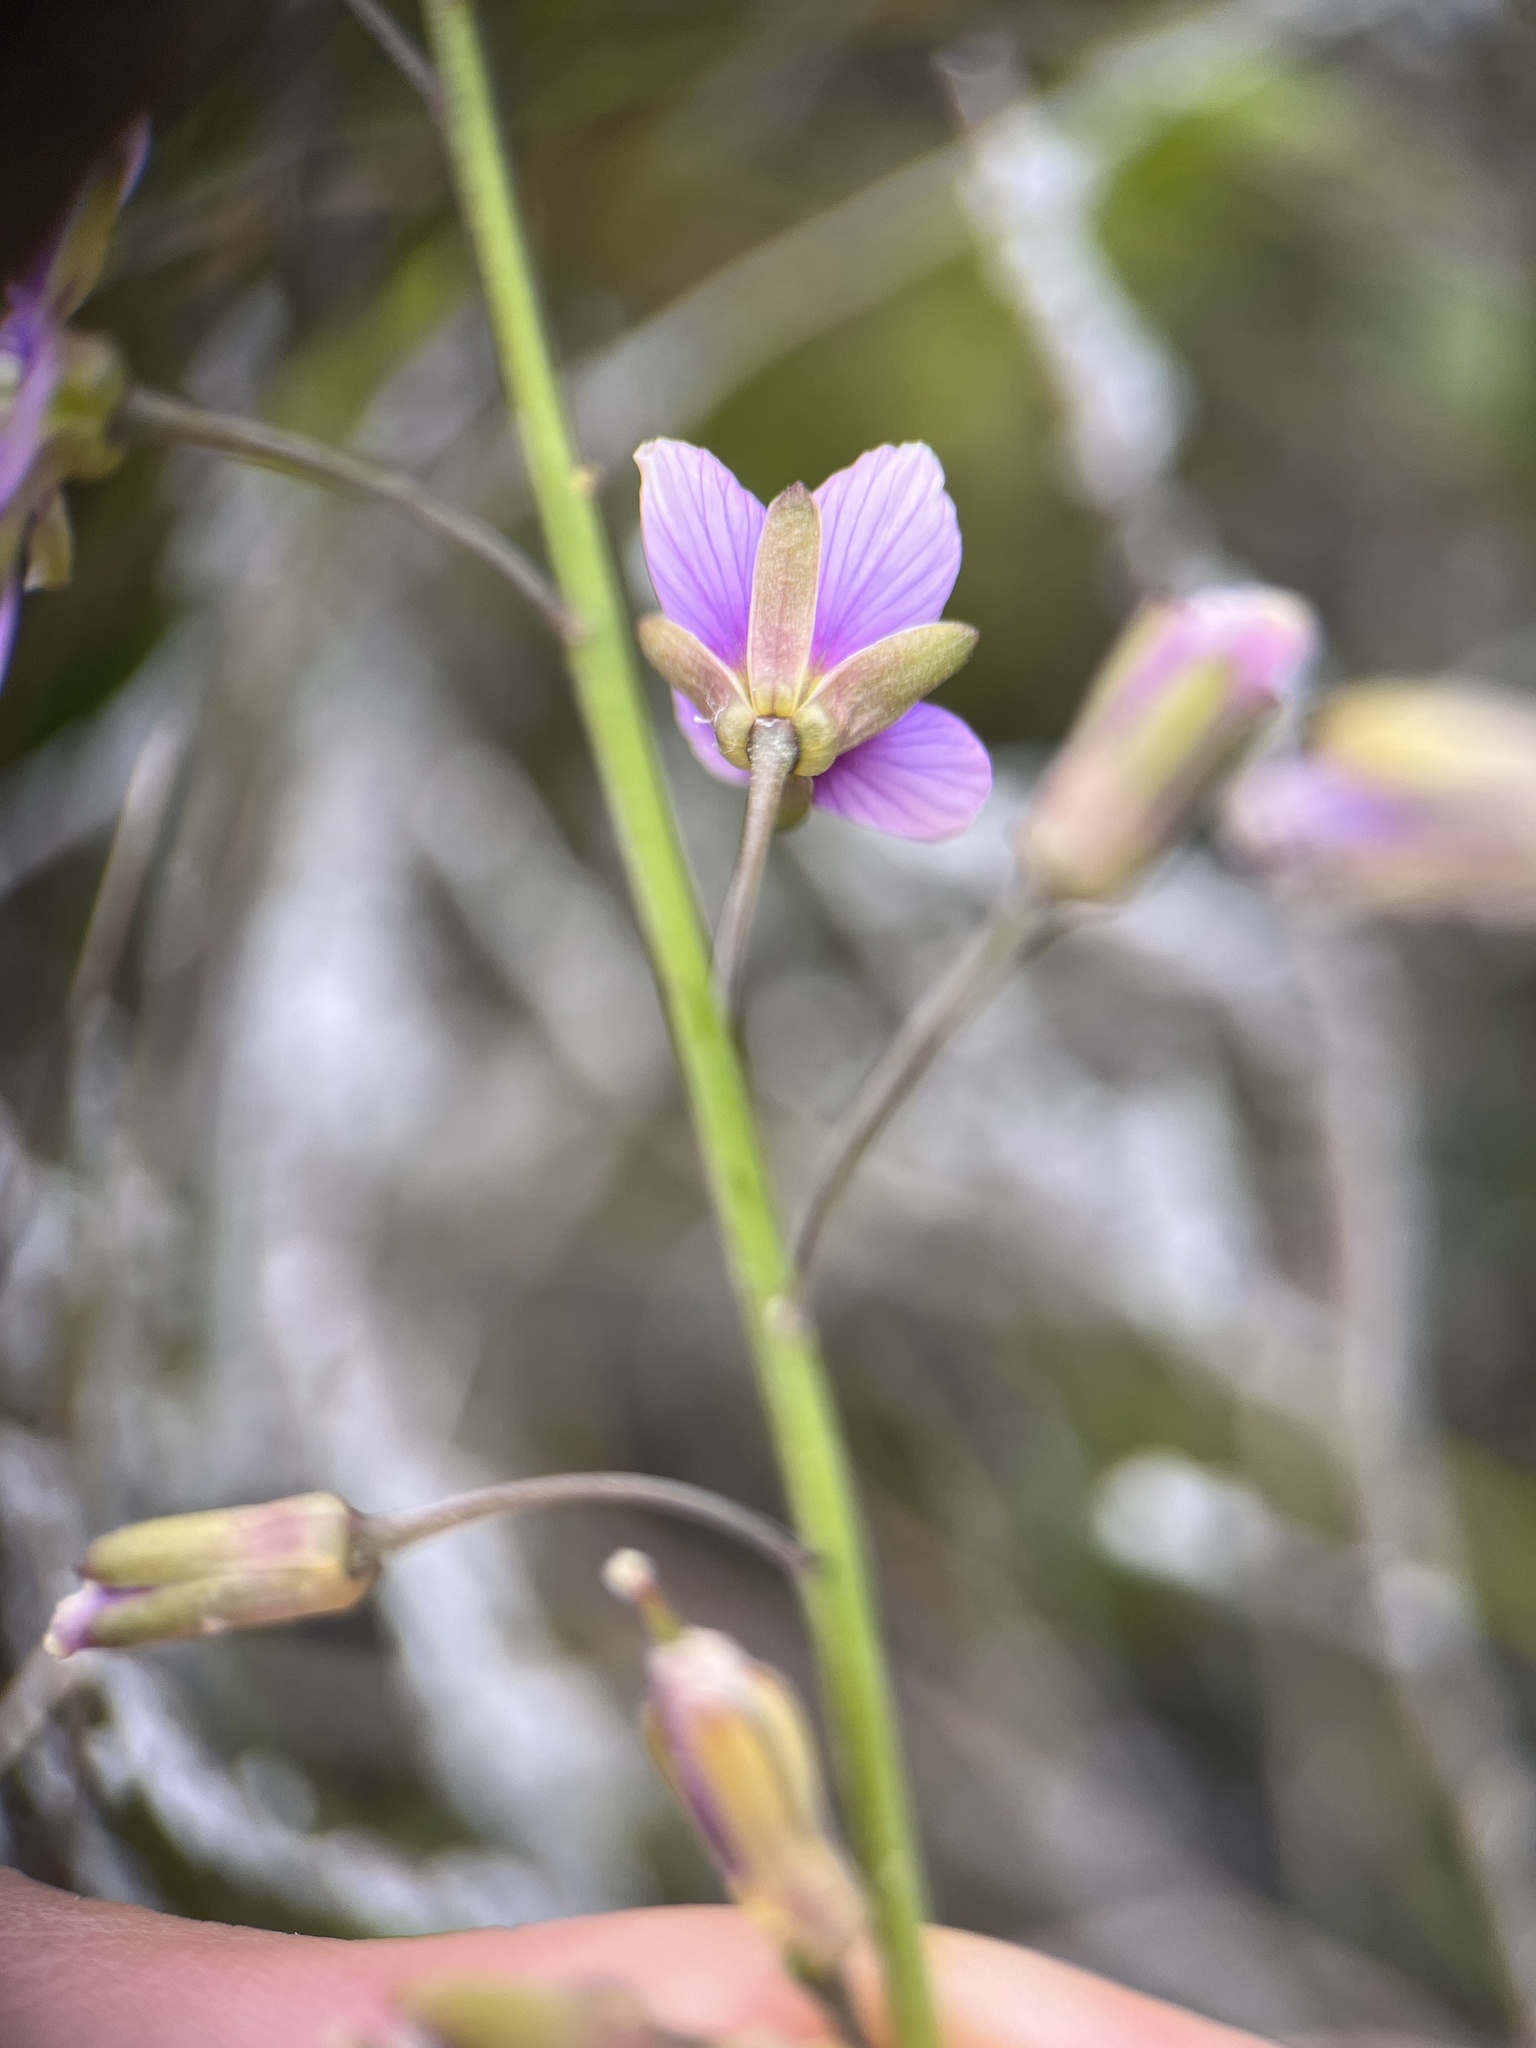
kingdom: Plantae
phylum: Tracheophyta
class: Magnoliopsida
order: Brassicales
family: Brassicaceae
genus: Heliophila
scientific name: Heliophila linearis
